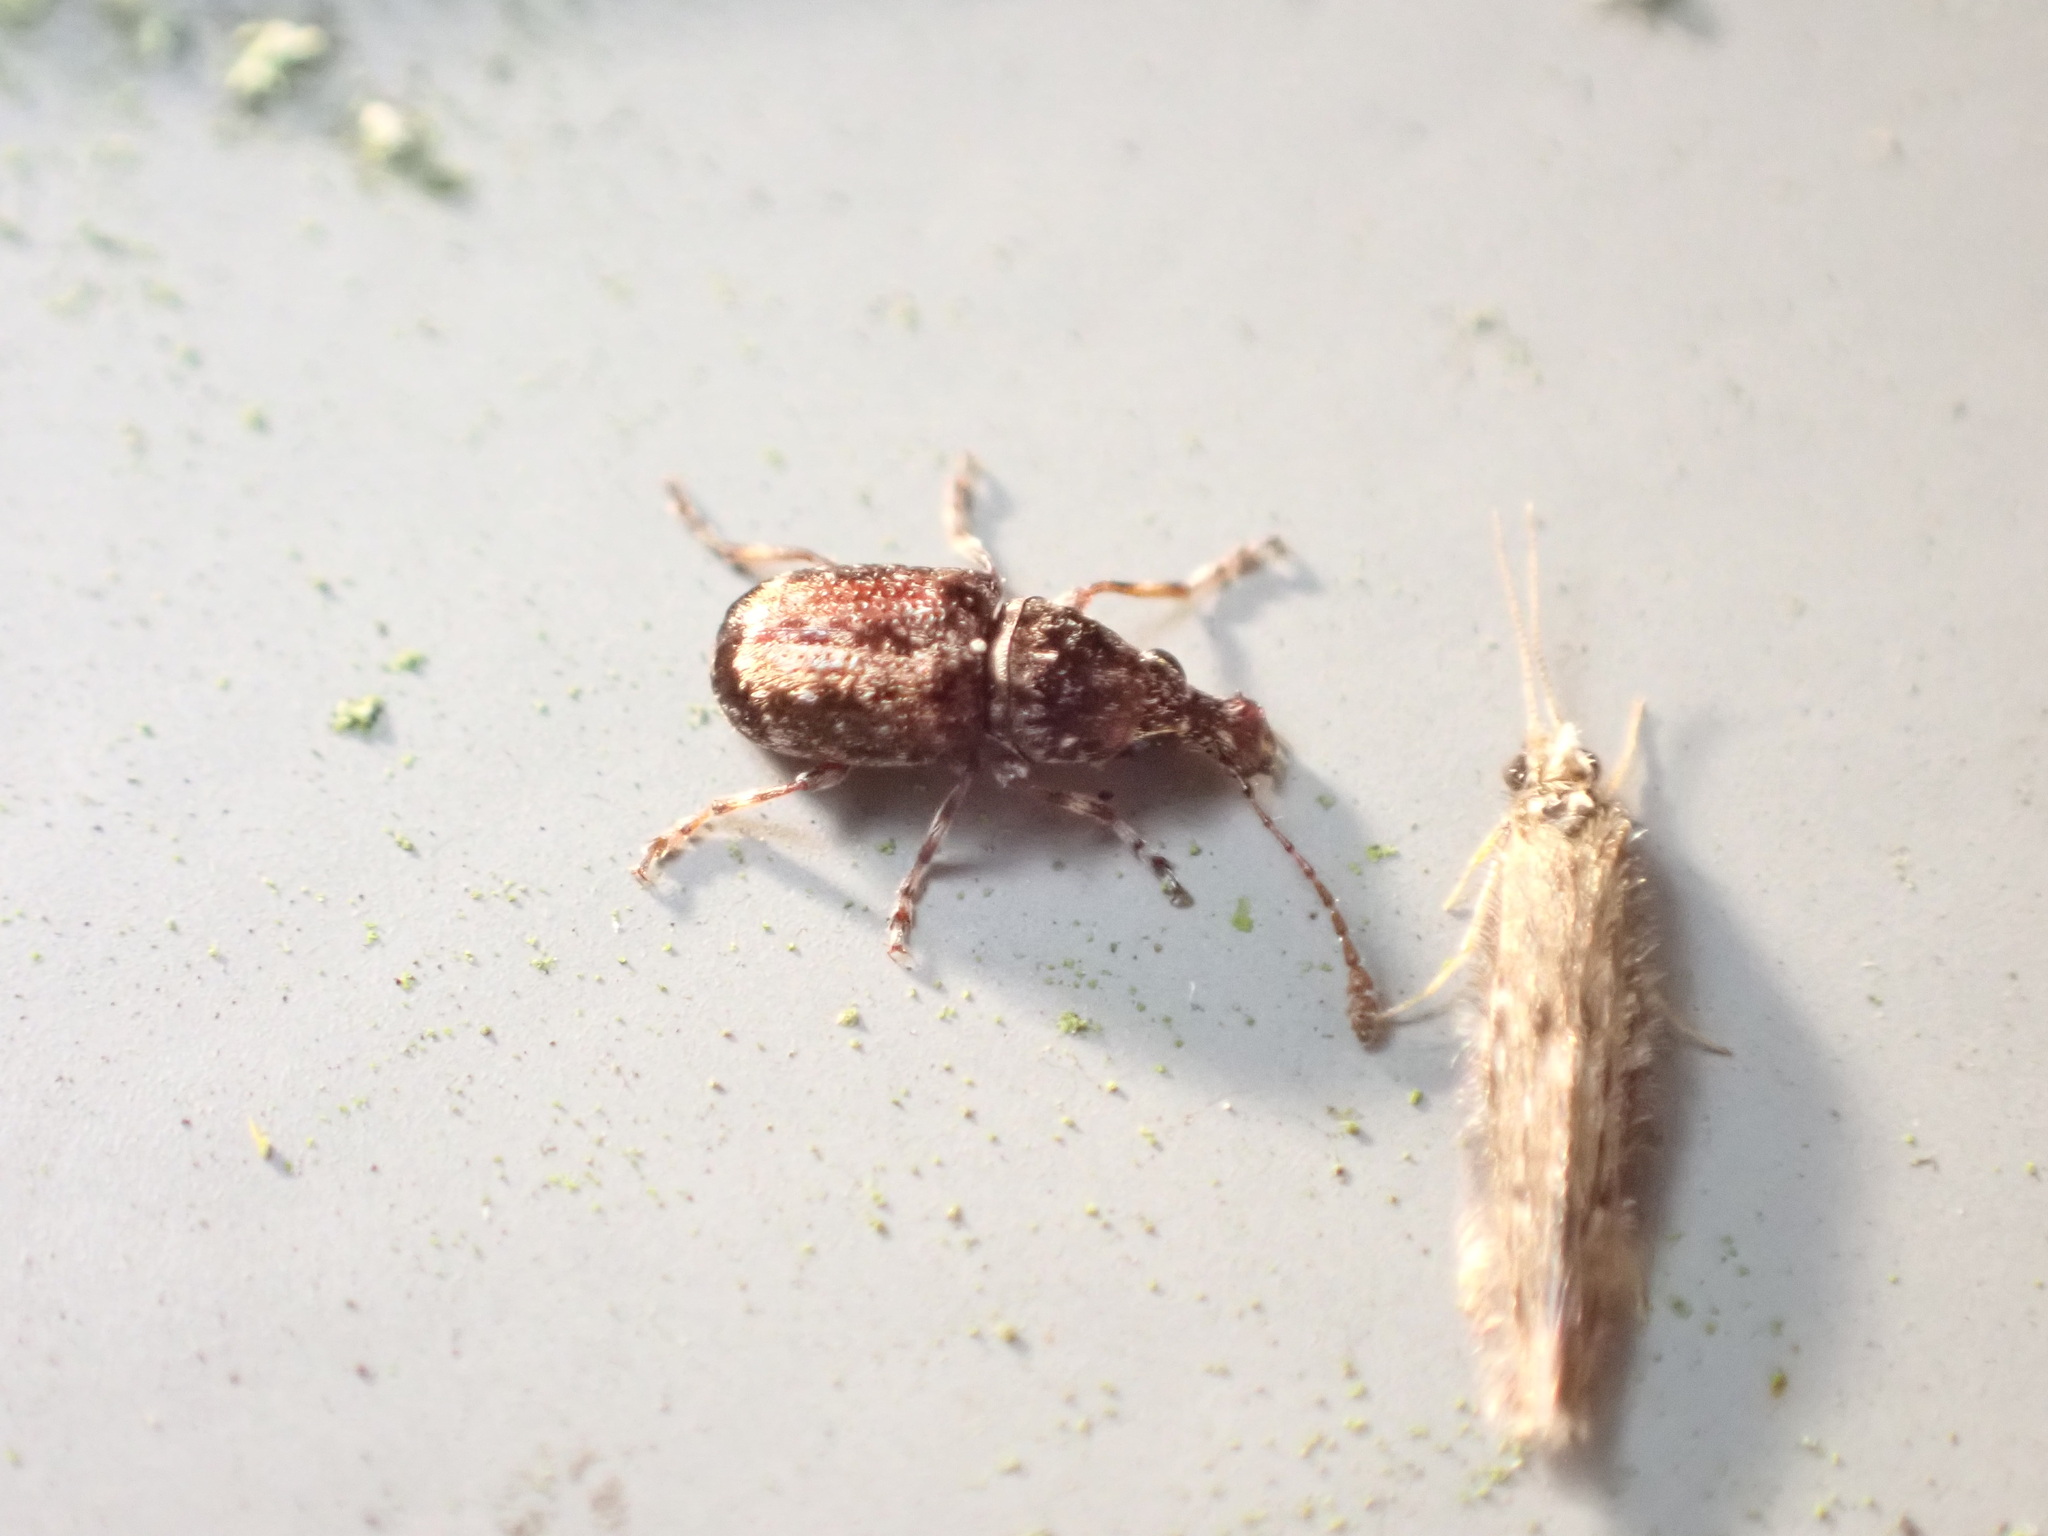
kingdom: Animalia
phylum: Arthropoda
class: Insecta
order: Coleoptera
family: Anthribidae
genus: Sharpius
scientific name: Sharpius
